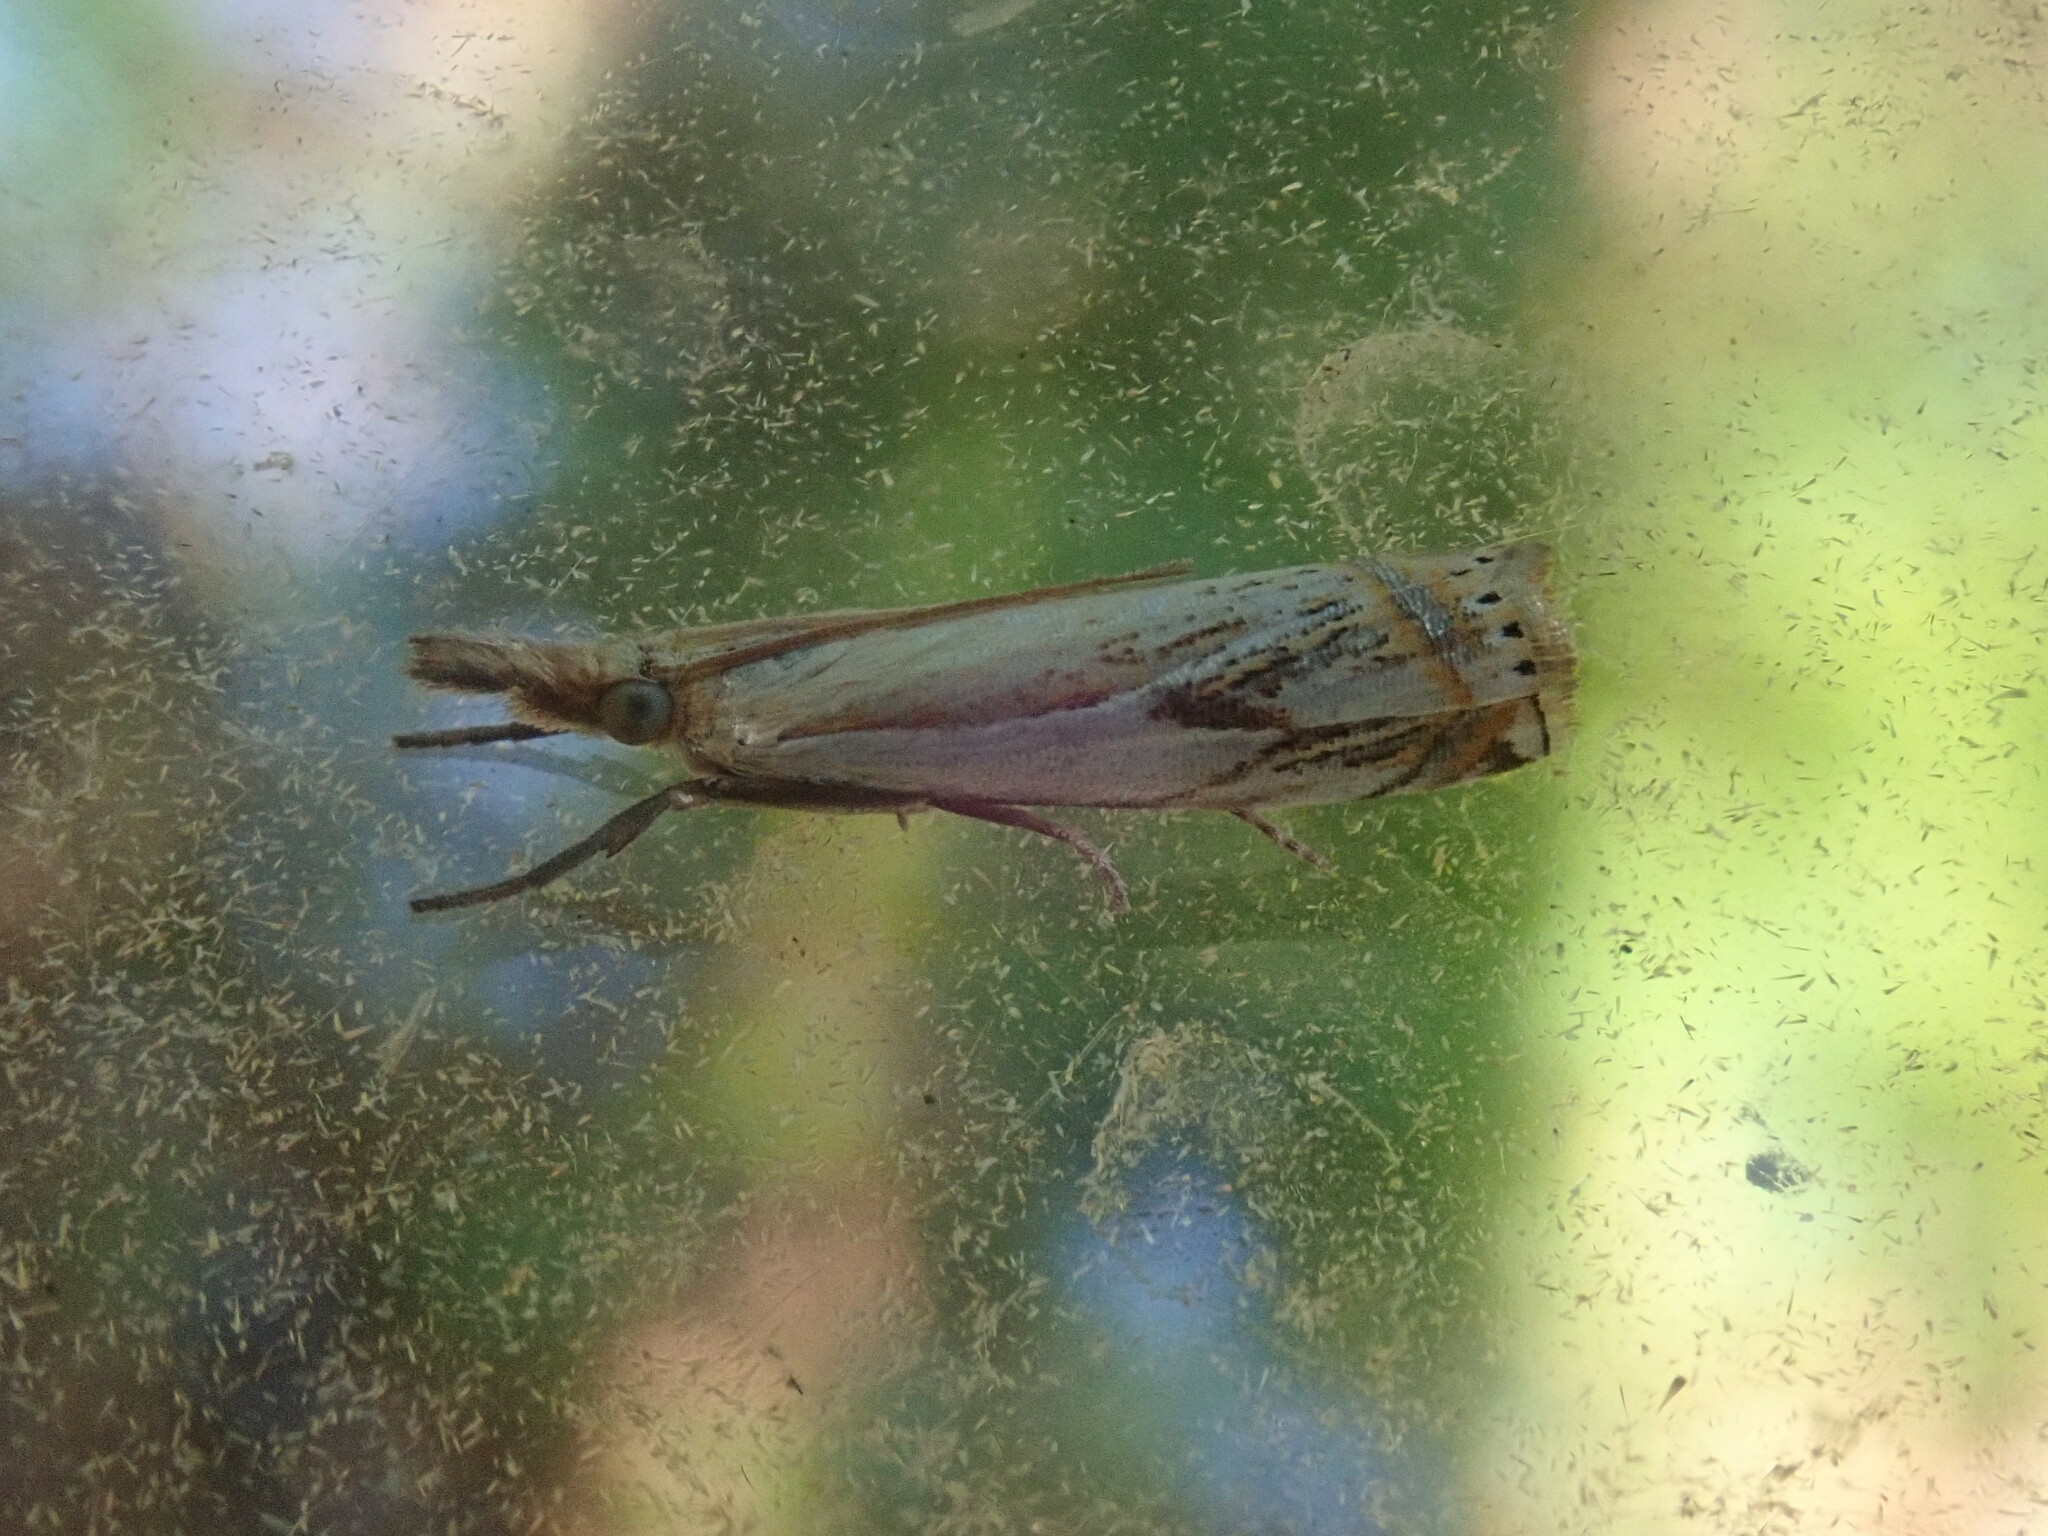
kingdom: Animalia
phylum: Arthropoda
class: Insecta
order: Lepidoptera
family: Crambidae
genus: Crambus
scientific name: Crambus agitatellus
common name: Double-banded grass-veneer
